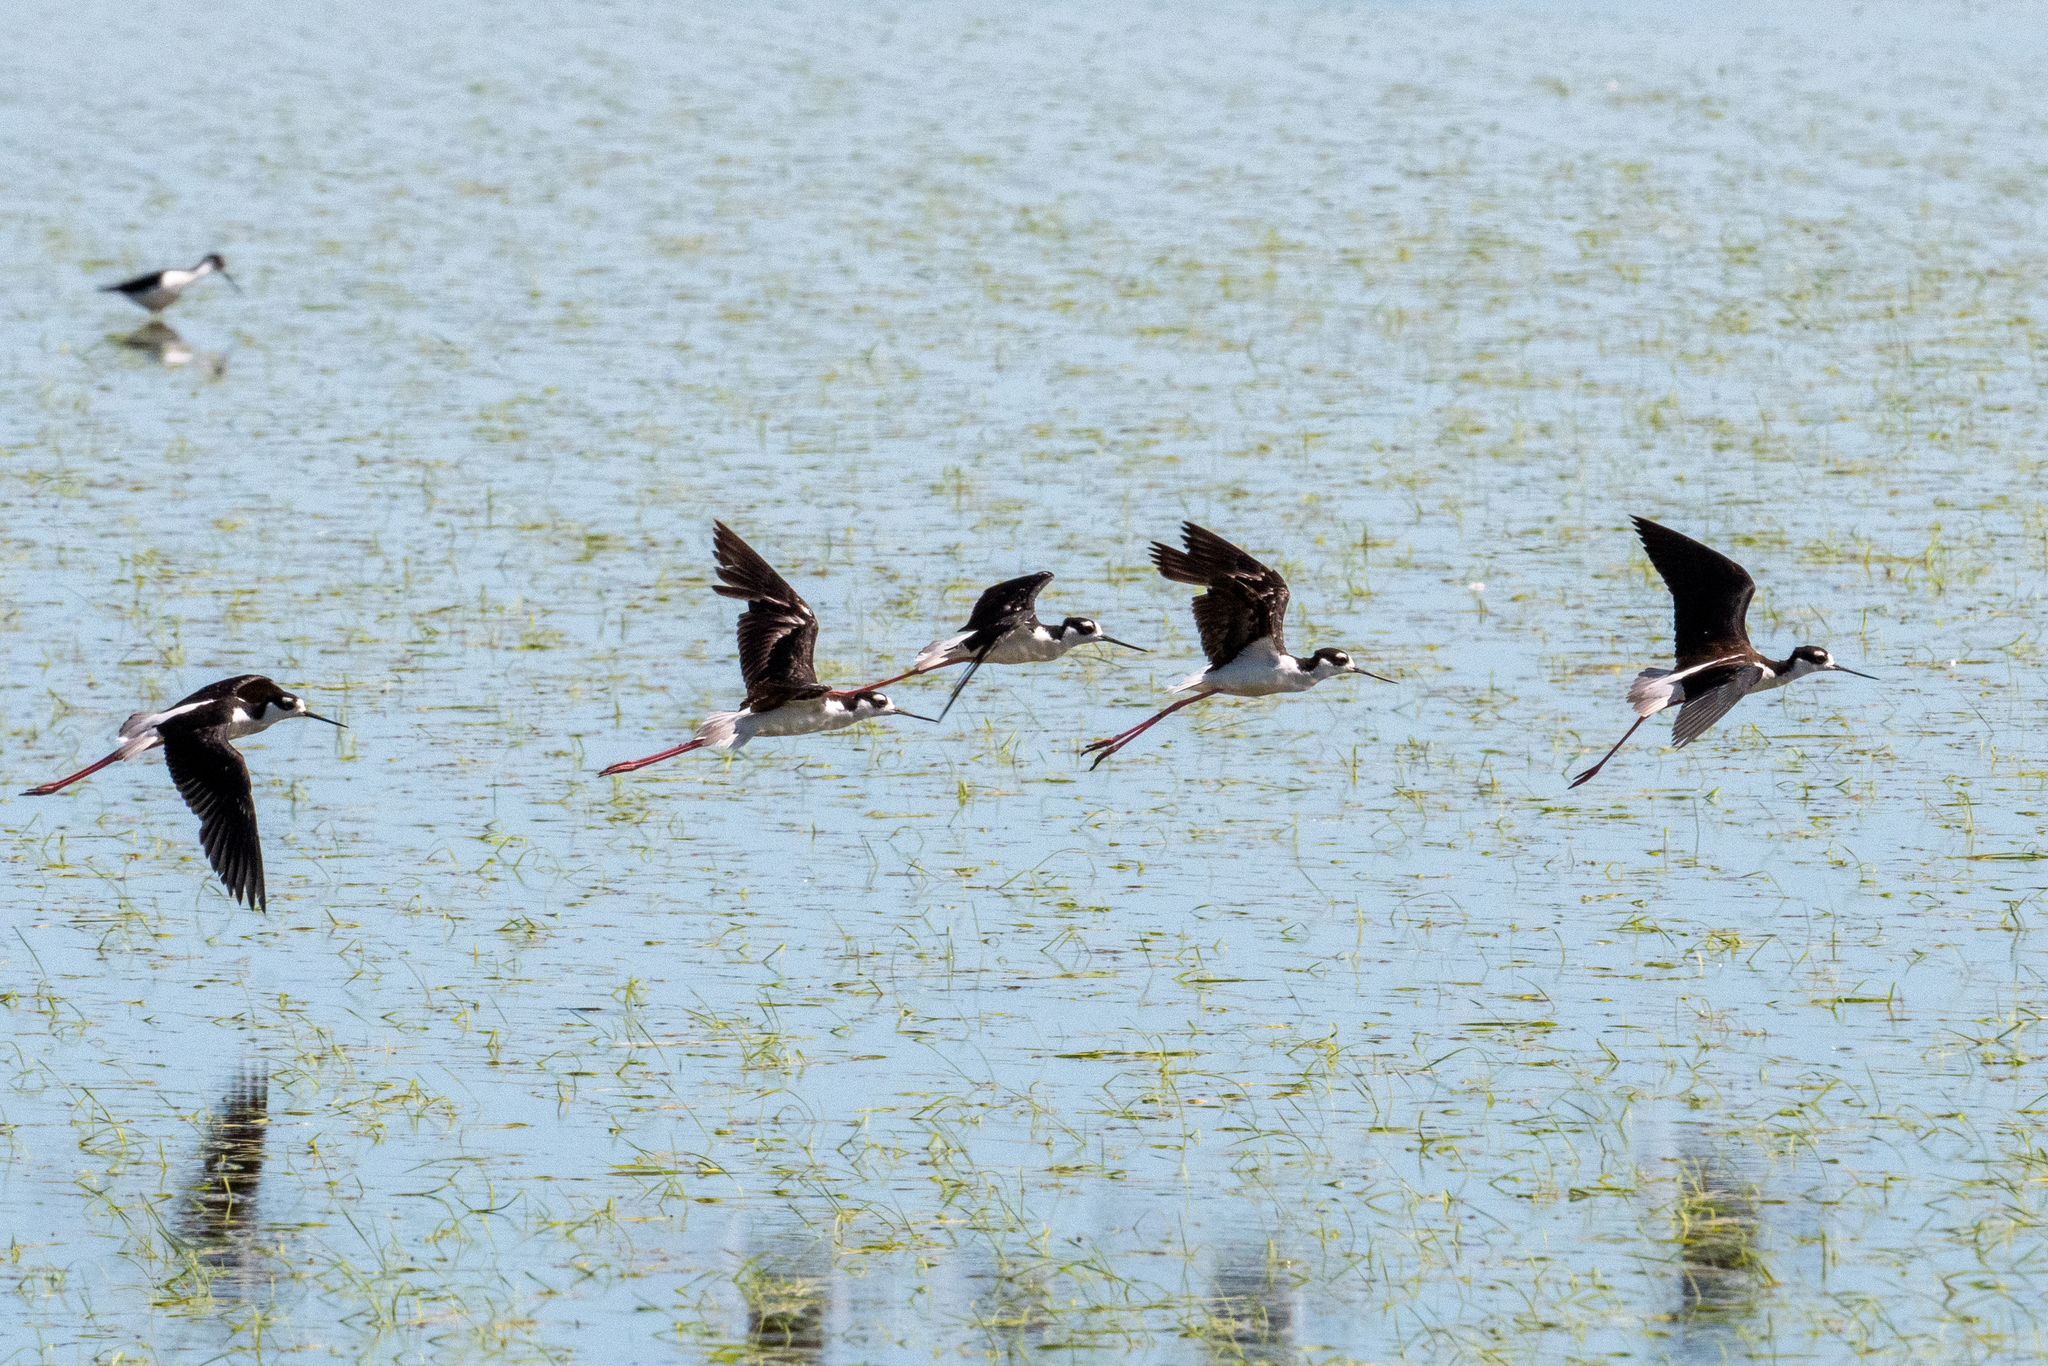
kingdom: Animalia
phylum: Chordata
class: Aves
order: Charadriiformes
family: Recurvirostridae
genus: Himantopus
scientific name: Himantopus mexicanus
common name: Black-necked stilt
